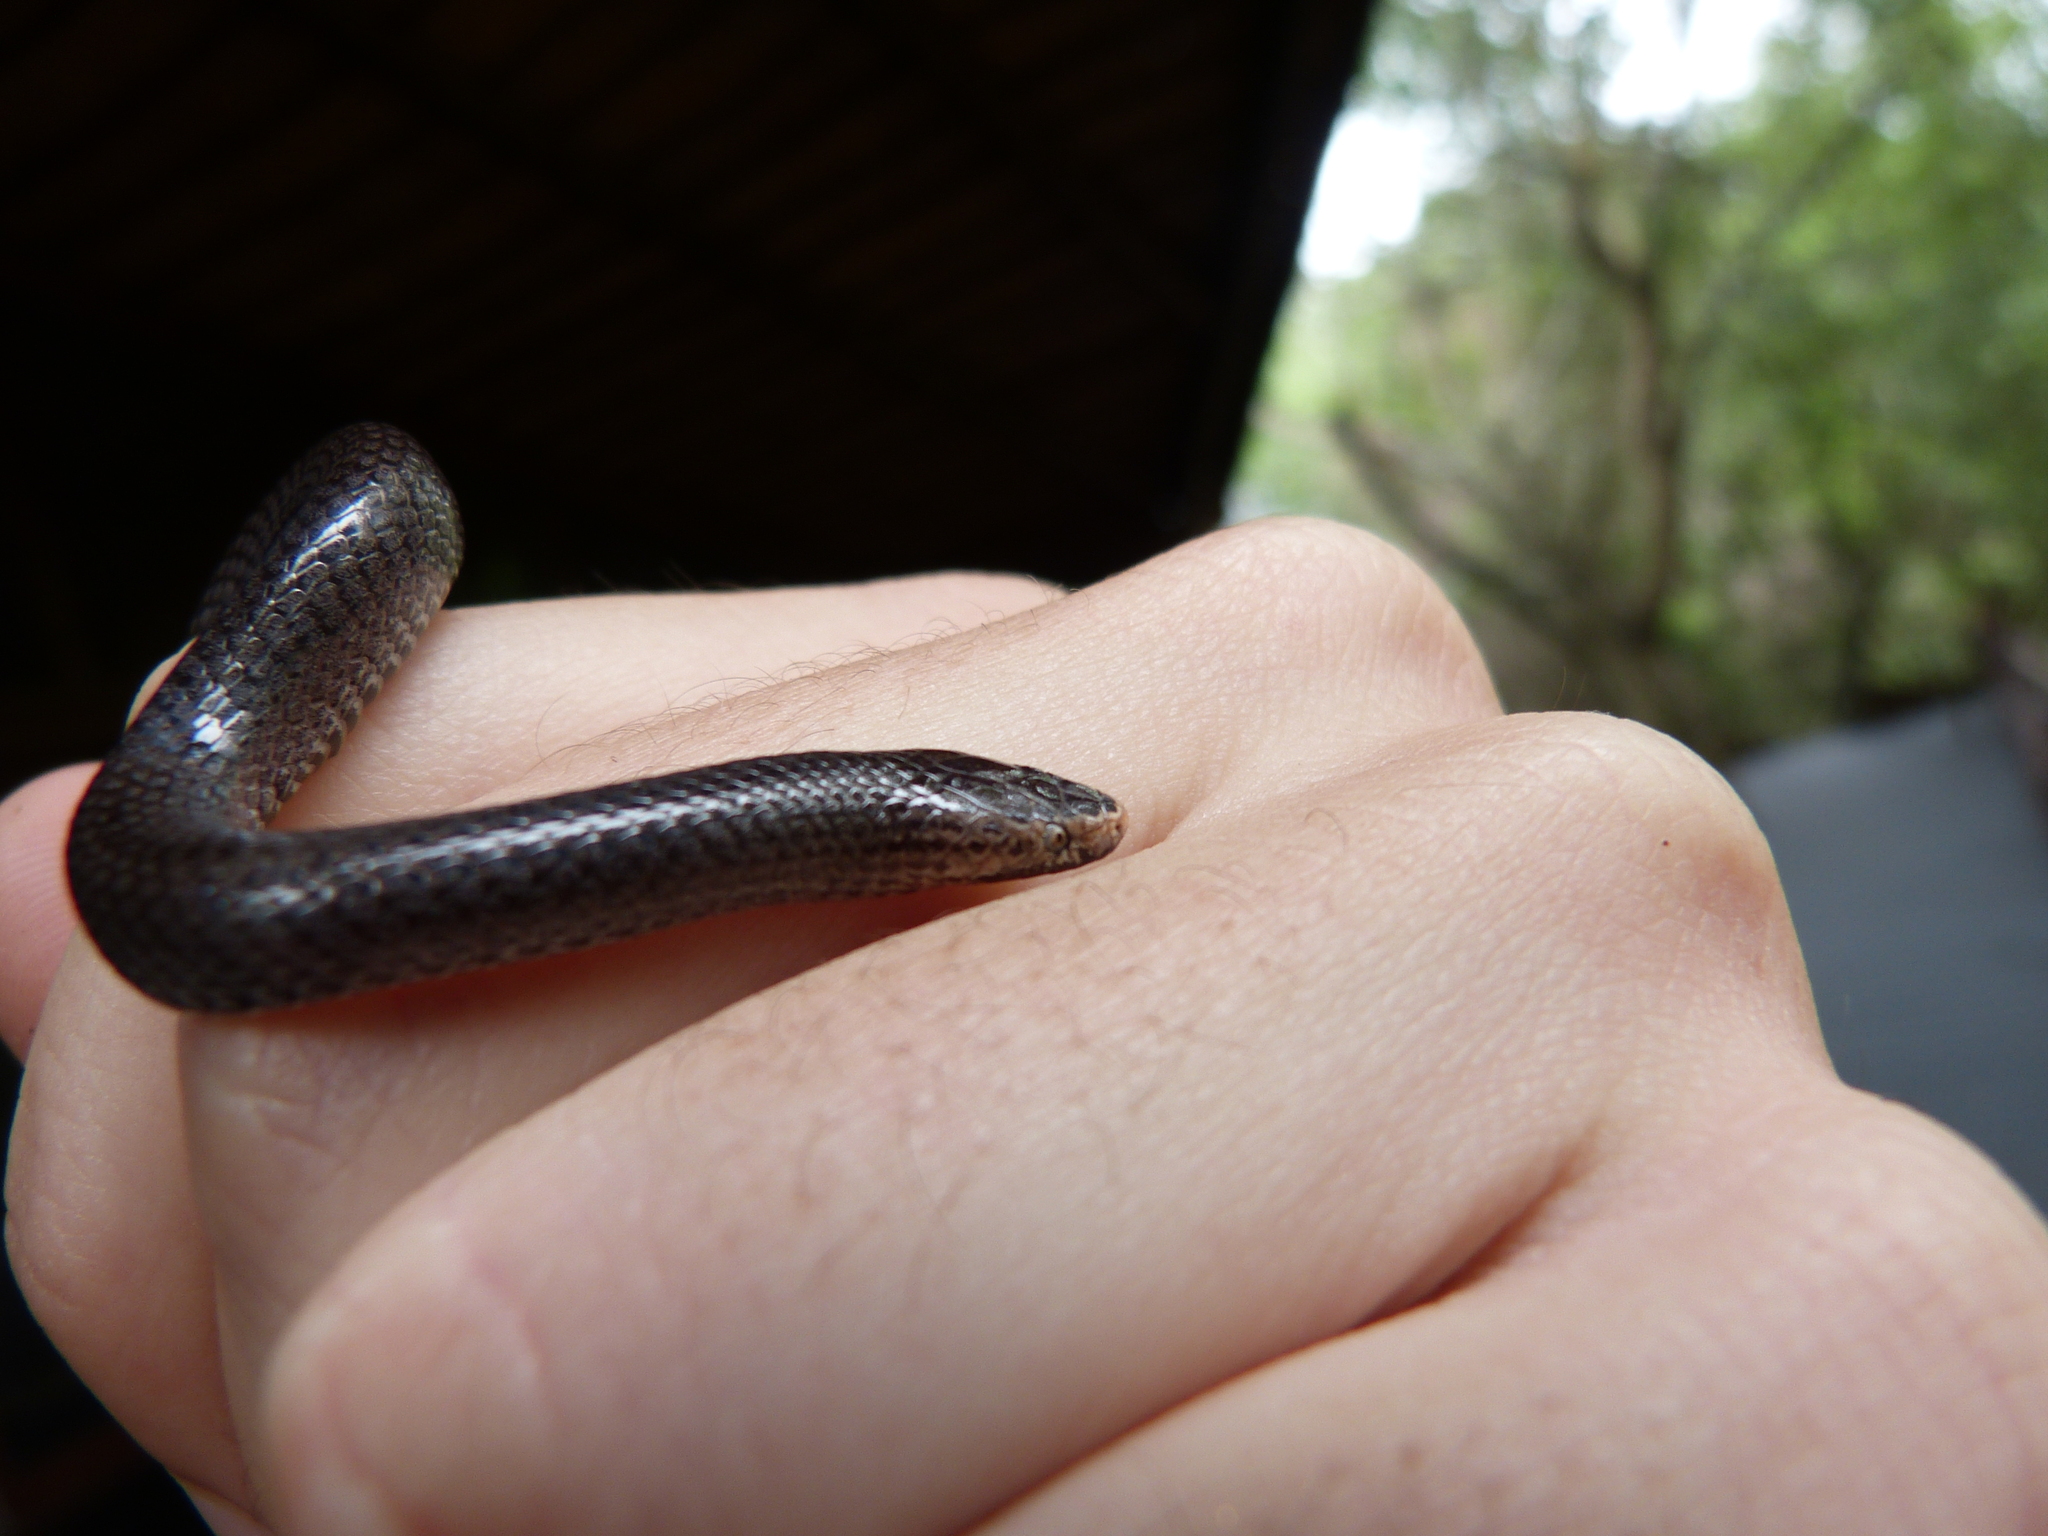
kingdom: Animalia
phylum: Chordata
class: Squamata
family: Lamprophiidae
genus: Lycophidion
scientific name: Lycophidion pygmaeum
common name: Pygmy wolf snake
